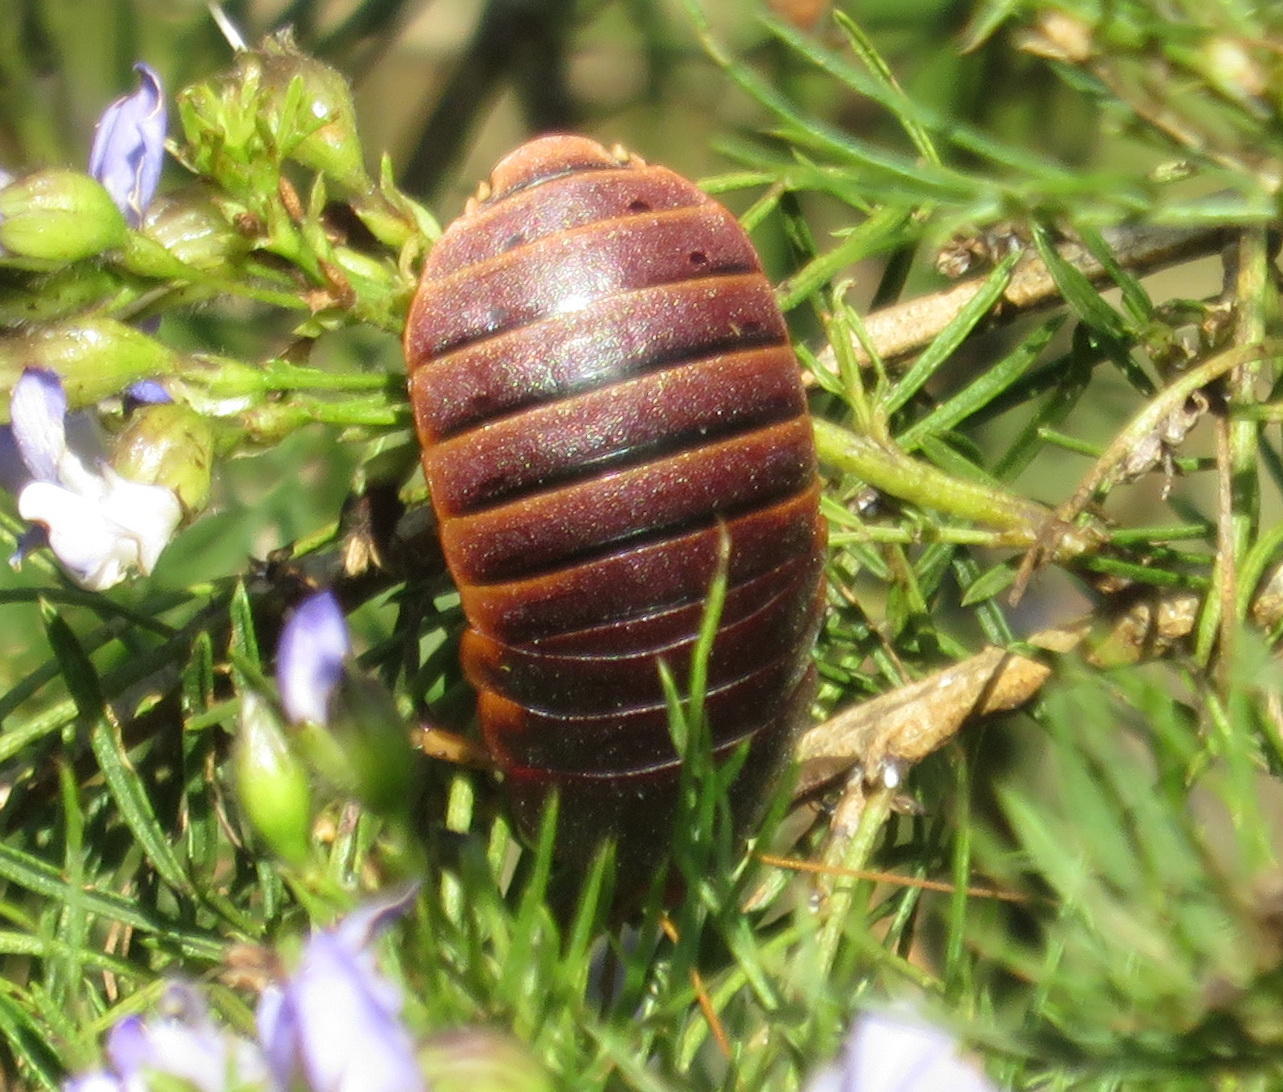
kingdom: Animalia
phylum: Arthropoda
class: Insecta
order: Blattodea
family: Blaberidae
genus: Aptera
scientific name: Aptera fusca
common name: Cape mountain cockroach
